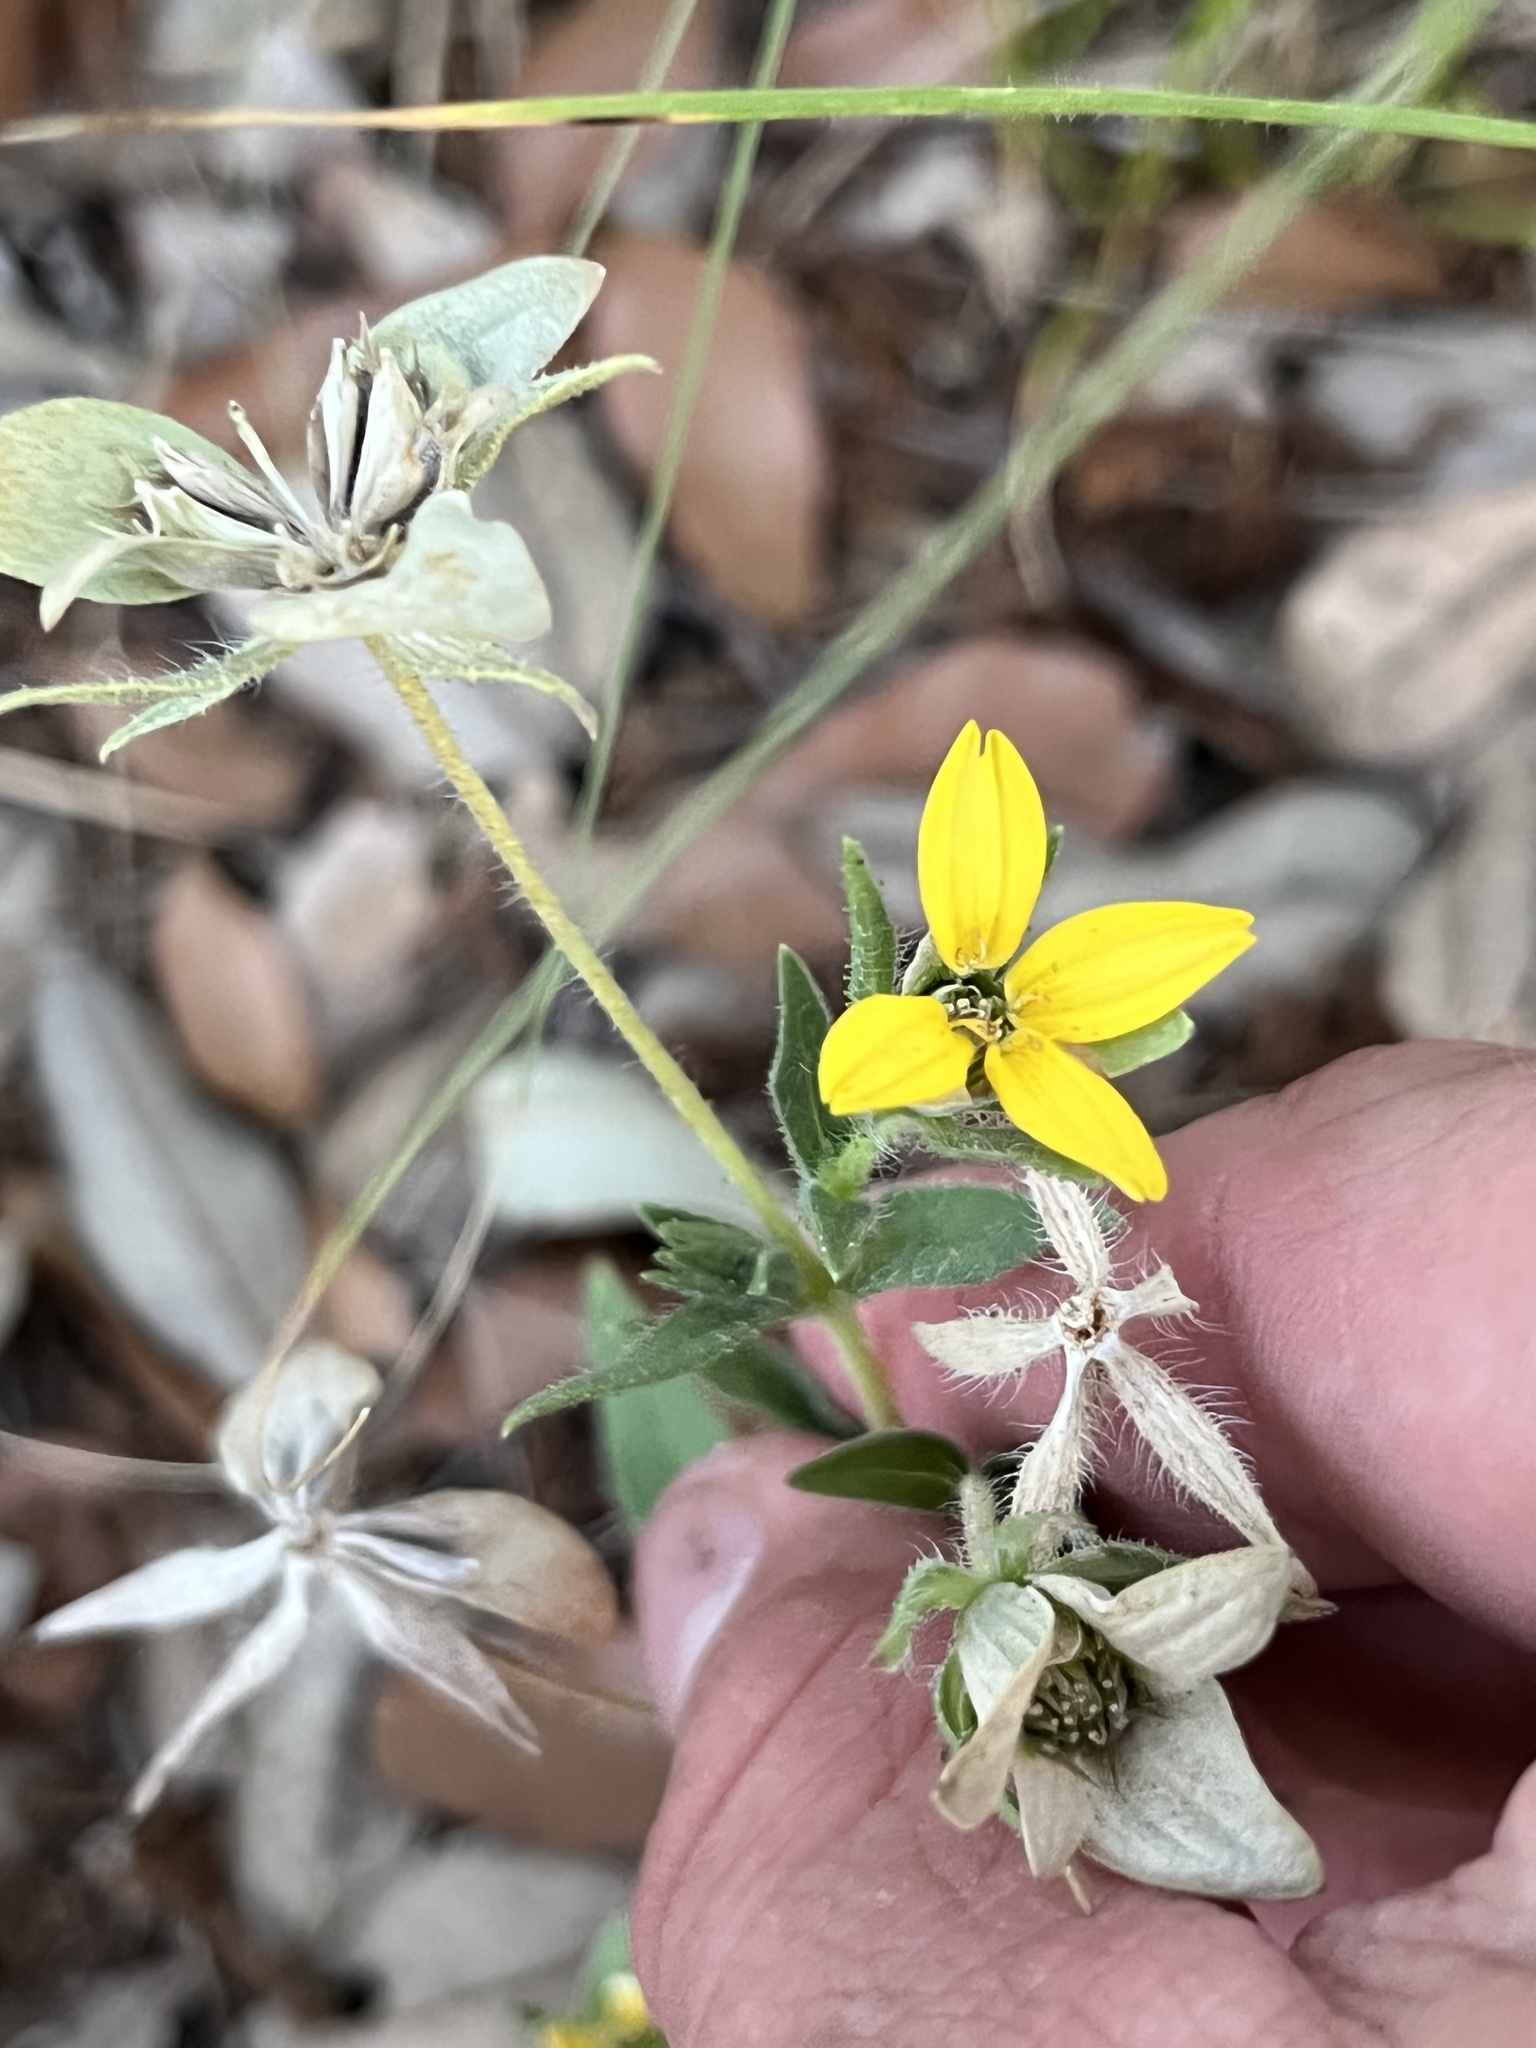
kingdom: Plantae
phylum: Tracheophyta
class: Magnoliopsida
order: Asterales
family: Asteraceae
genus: Lindheimera
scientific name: Lindheimera texana
